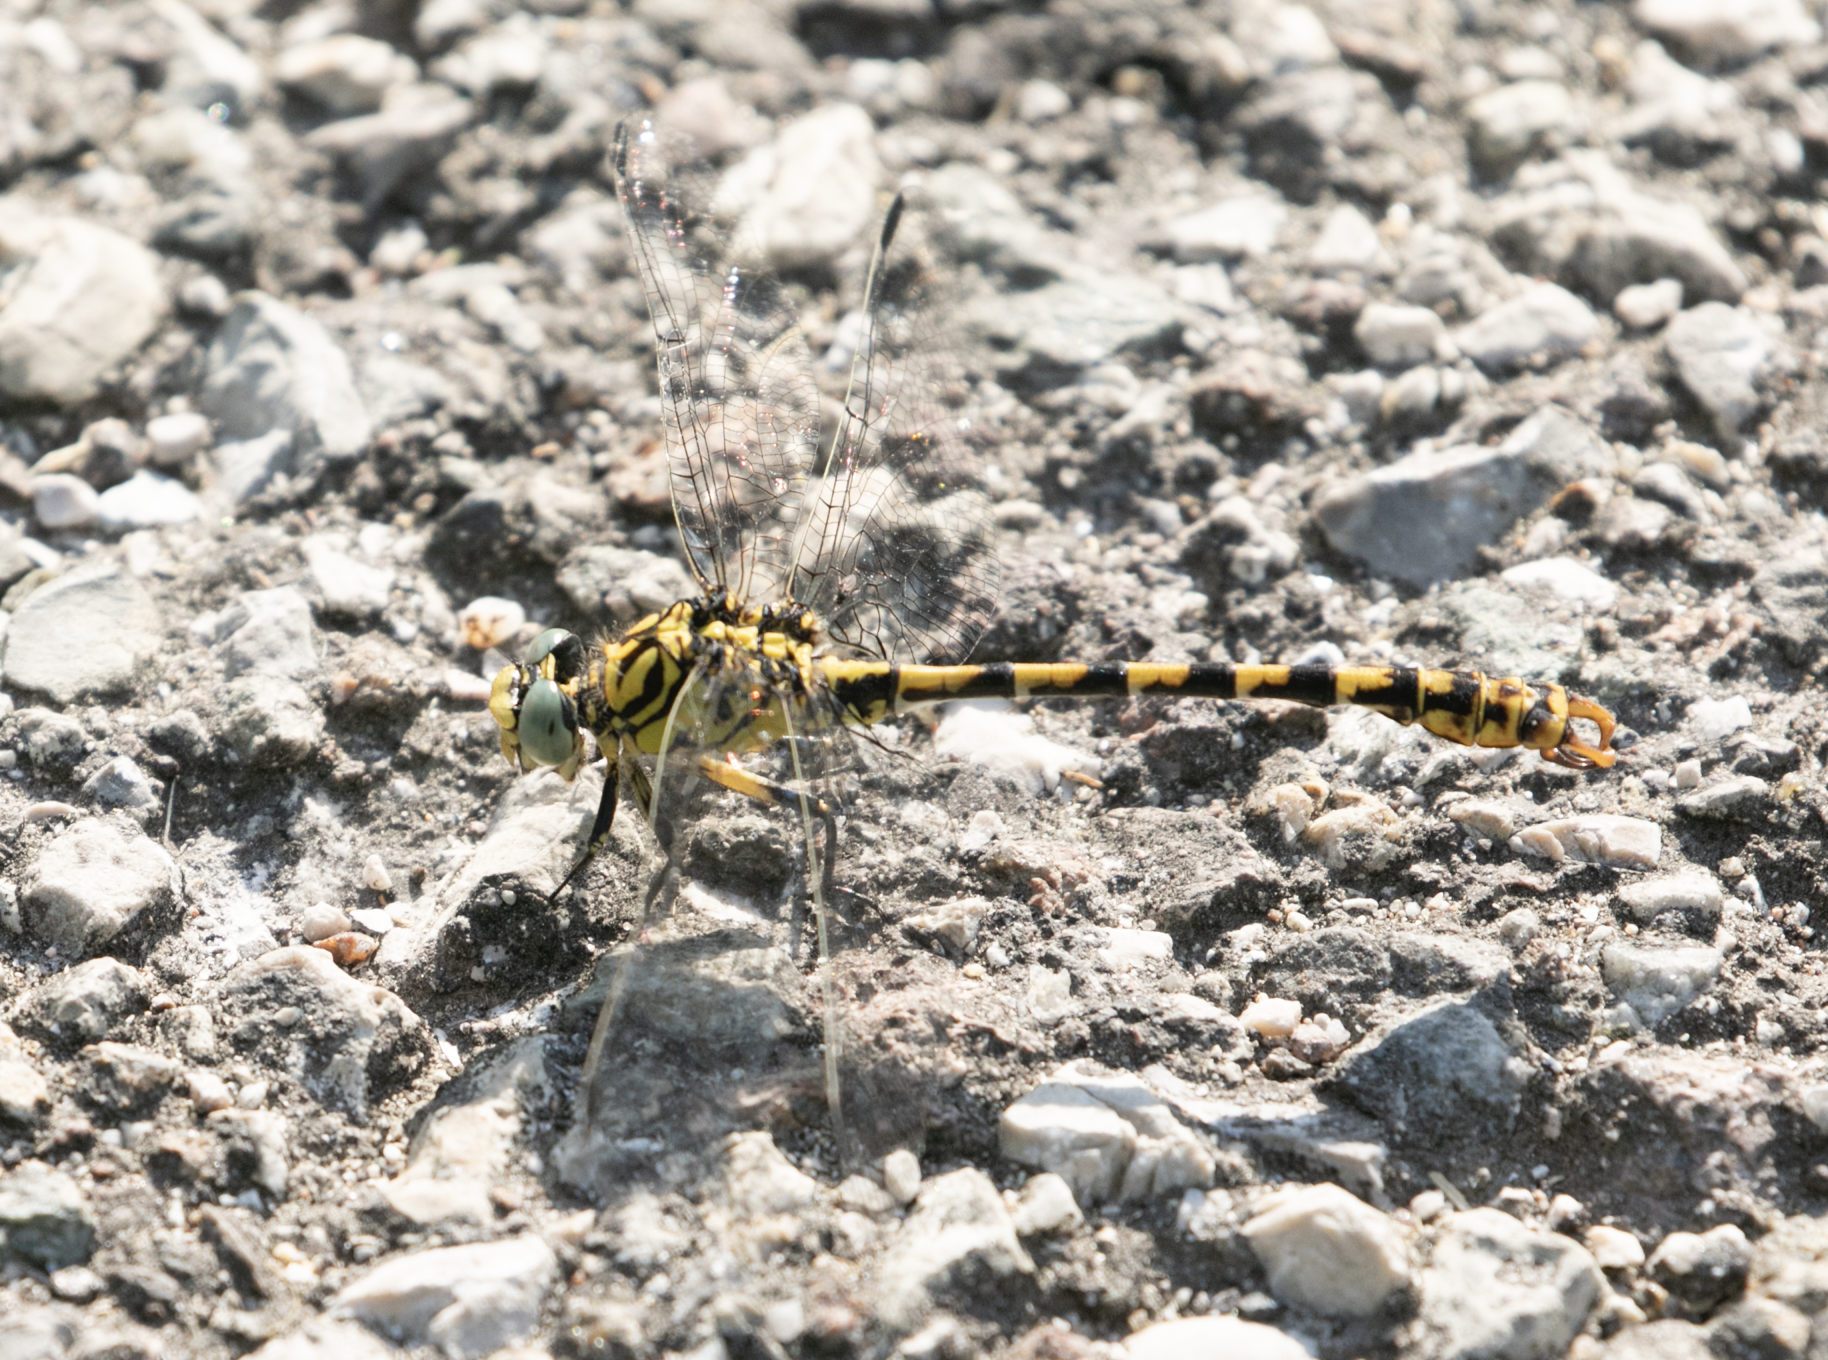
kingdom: Animalia
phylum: Arthropoda
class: Insecta
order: Odonata
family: Gomphidae
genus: Onychogomphus
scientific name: Onychogomphus forcipatus
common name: Small pincertail
